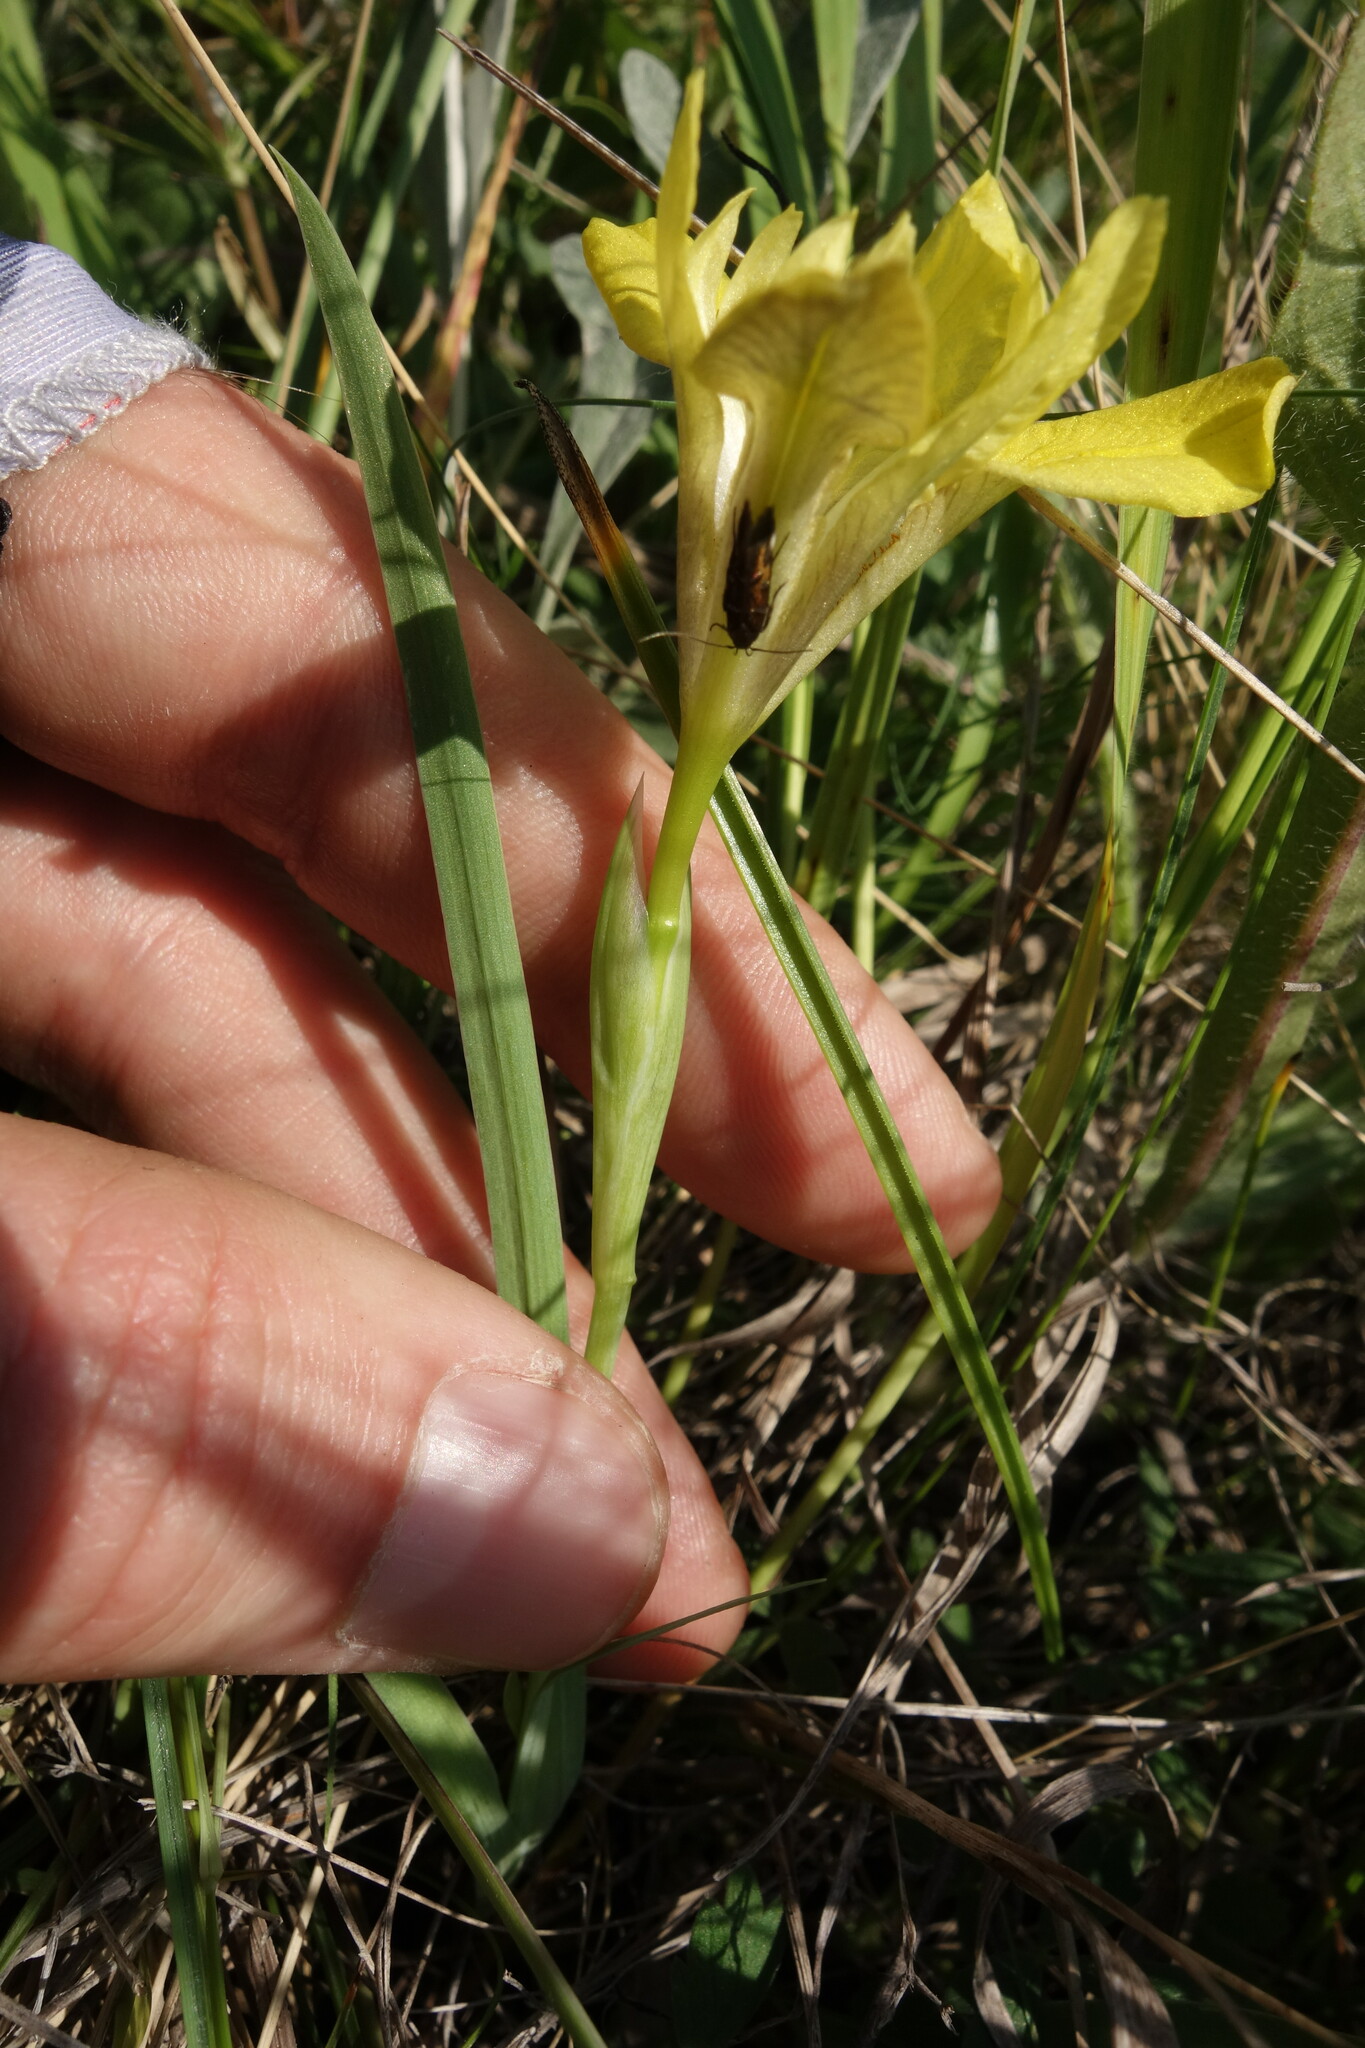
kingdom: Plantae
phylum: Tracheophyta
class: Liliopsida
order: Asparagales
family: Iridaceae
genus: Iris
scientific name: Iris humilis
